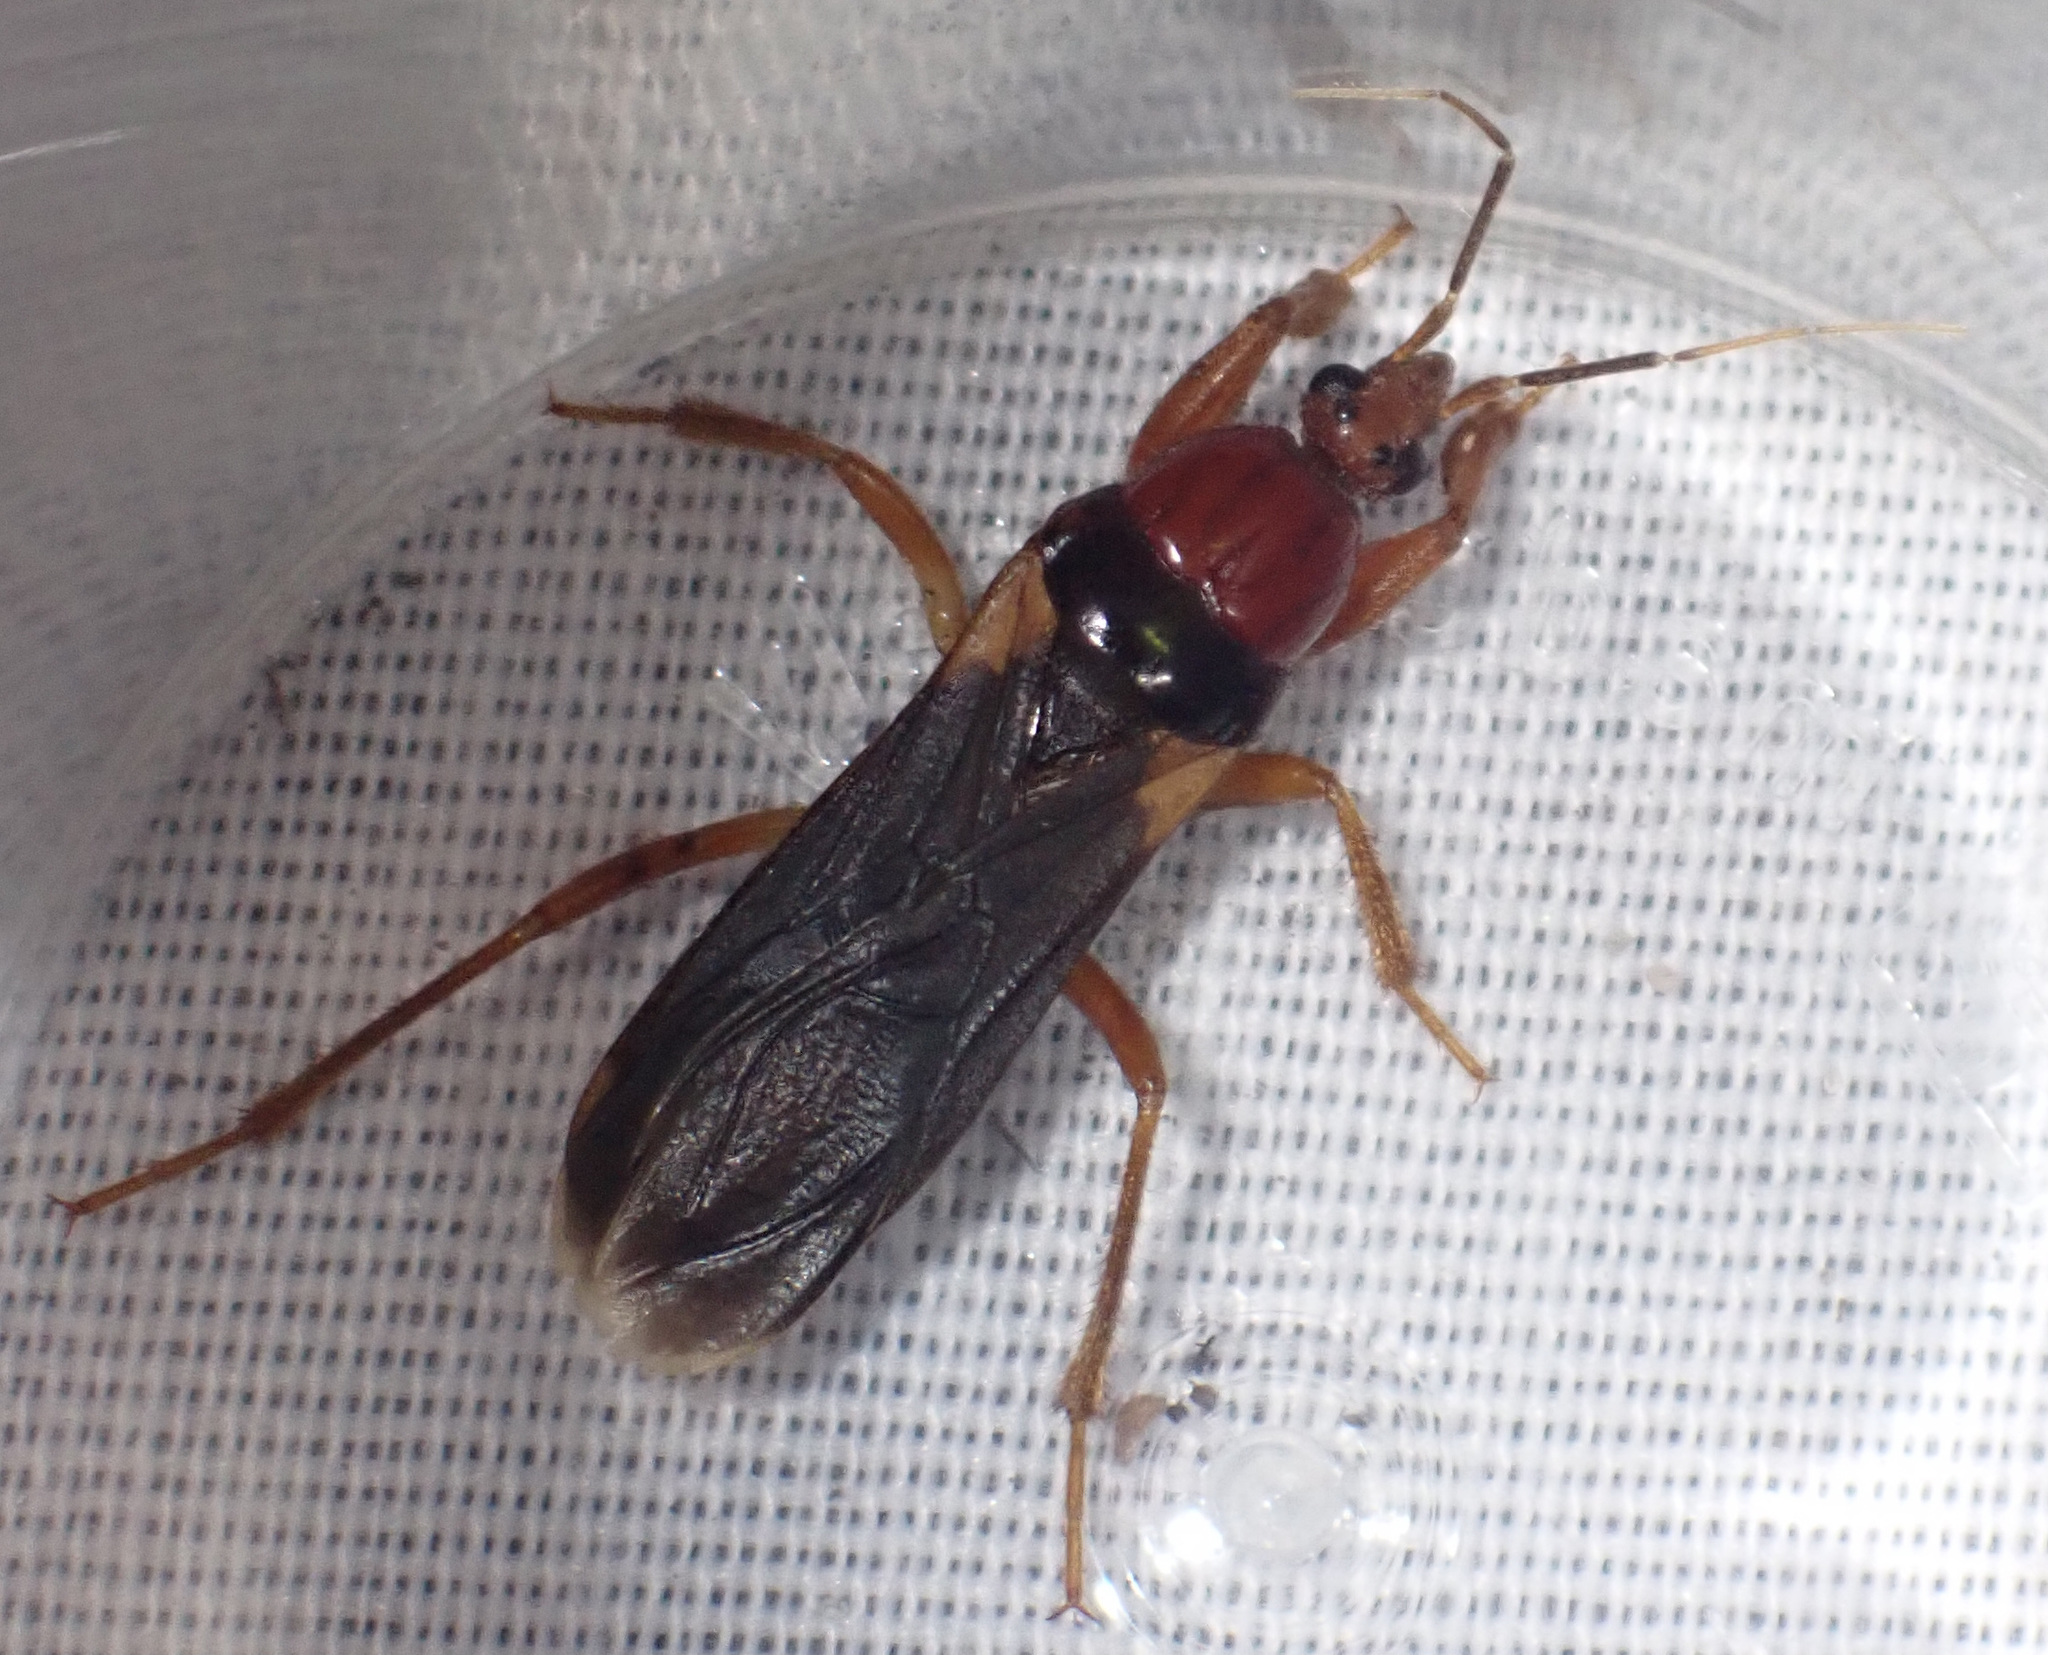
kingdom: Animalia
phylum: Arthropoda
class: Insecta
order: Hemiptera
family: Reduviidae
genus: Sirthenea
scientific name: Sirthenea africana
